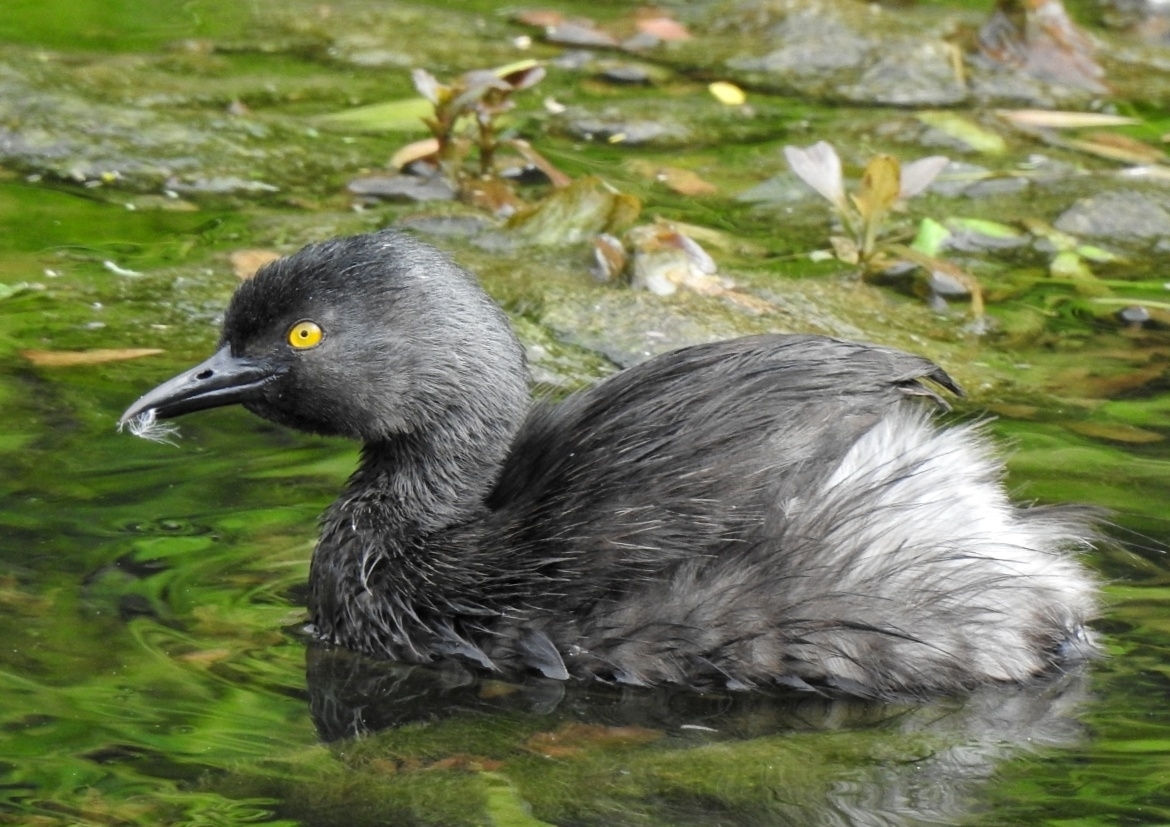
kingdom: Animalia
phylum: Chordata
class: Aves
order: Podicipediformes
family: Podicipedidae
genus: Tachybaptus
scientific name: Tachybaptus dominicus
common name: Least grebe
